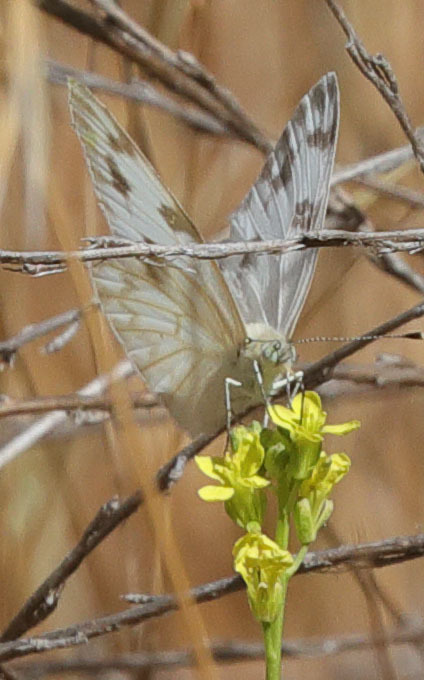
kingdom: Animalia
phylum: Arthropoda
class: Insecta
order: Lepidoptera
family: Pieridae
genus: Pontia
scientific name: Pontia protodice
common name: Checkered white
